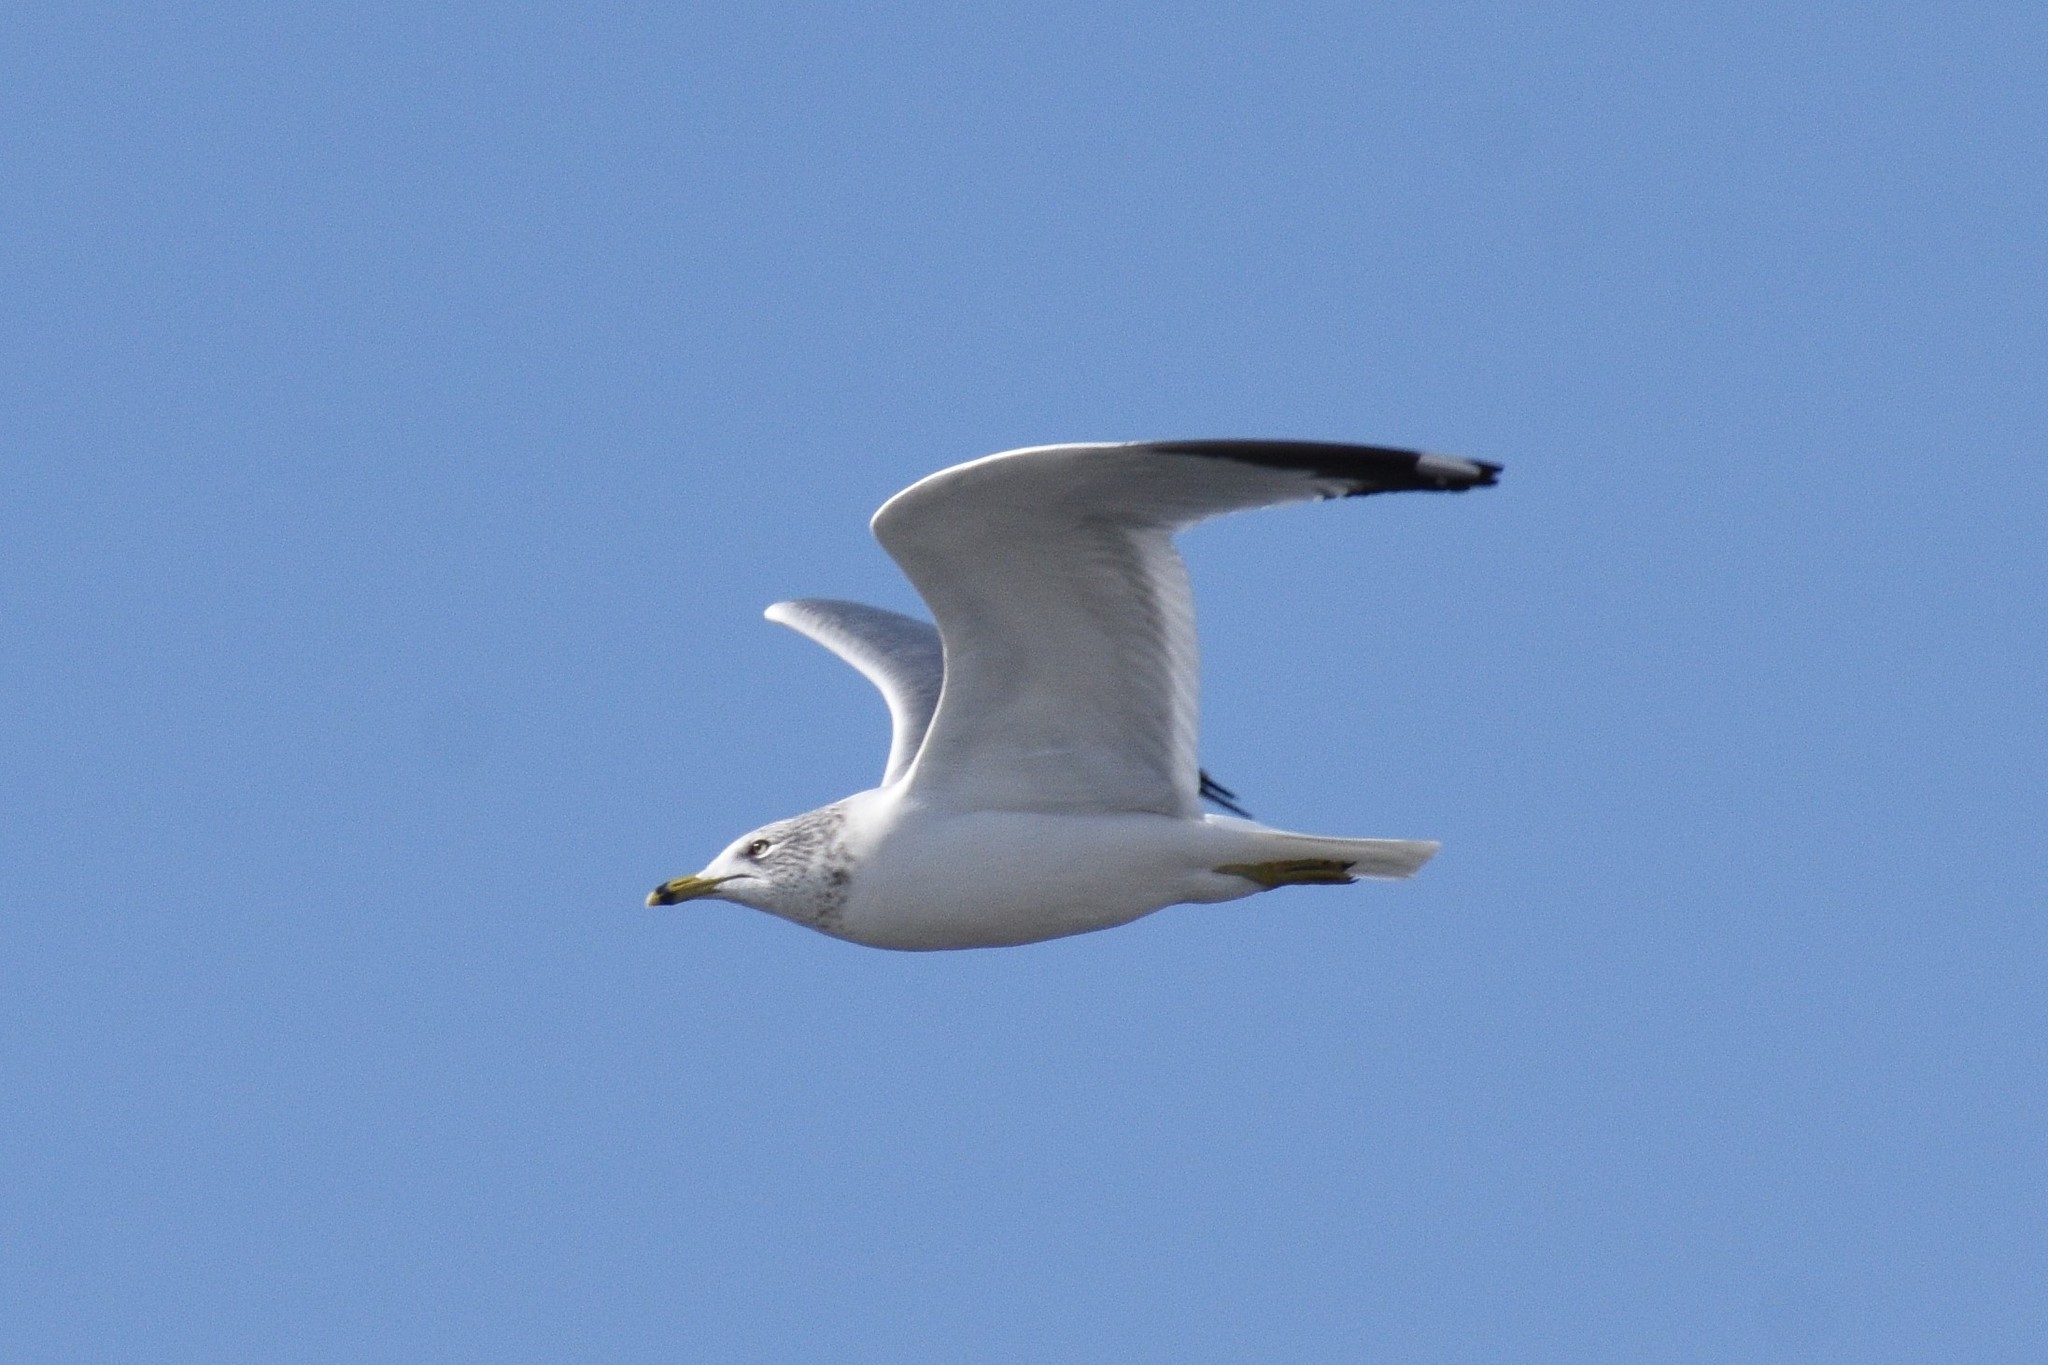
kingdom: Animalia
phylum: Chordata
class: Aves
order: Charadriiformes
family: Laridae
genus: Larus
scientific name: Larus delawarensis
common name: Ring-billed gull
